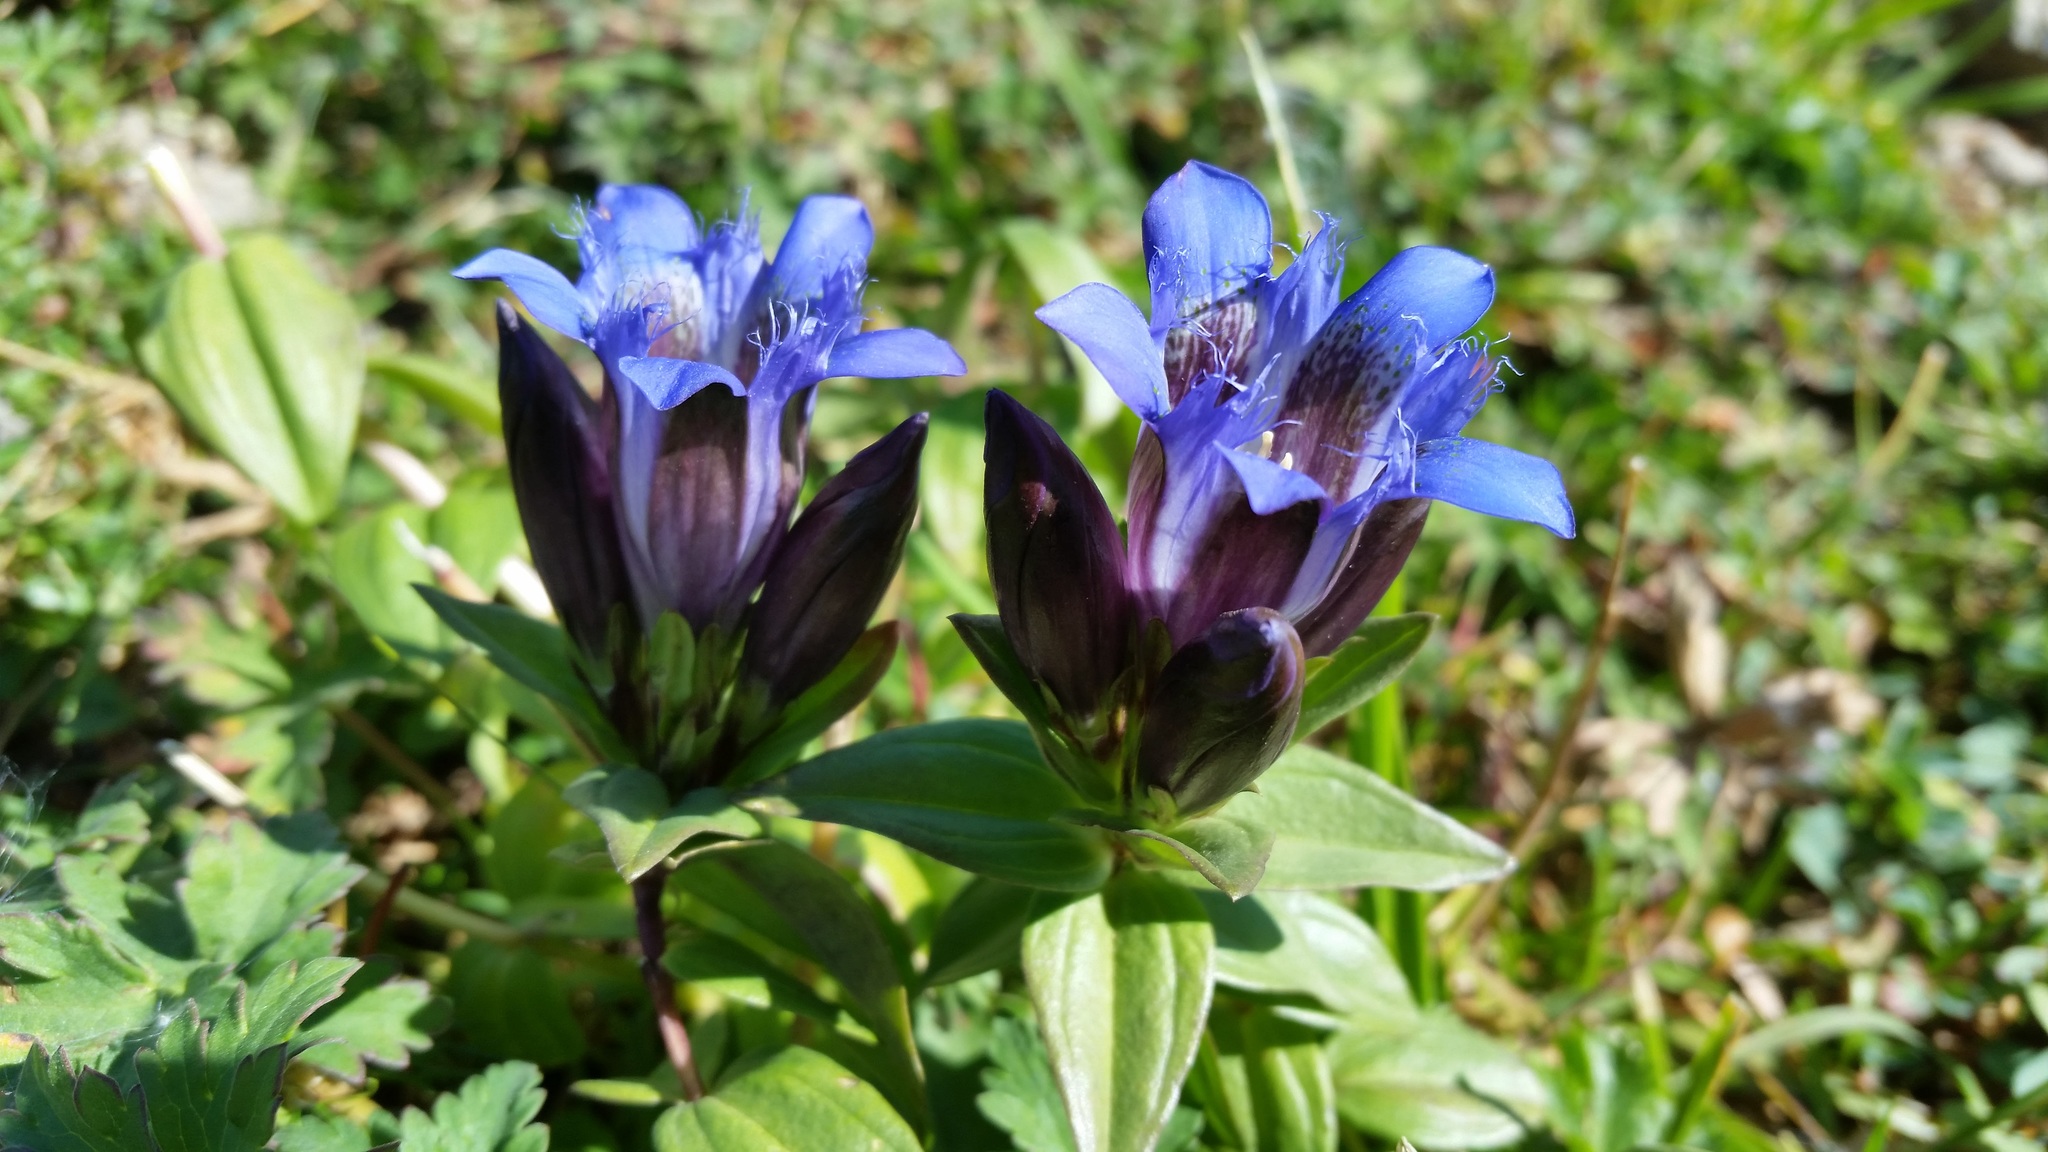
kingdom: Plantae
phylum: Tracheophyta
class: Magnoliopsida
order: Gentianales
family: Gentianaceae
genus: Gentiana
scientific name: Gentiana septemfida
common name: Crested gentian
